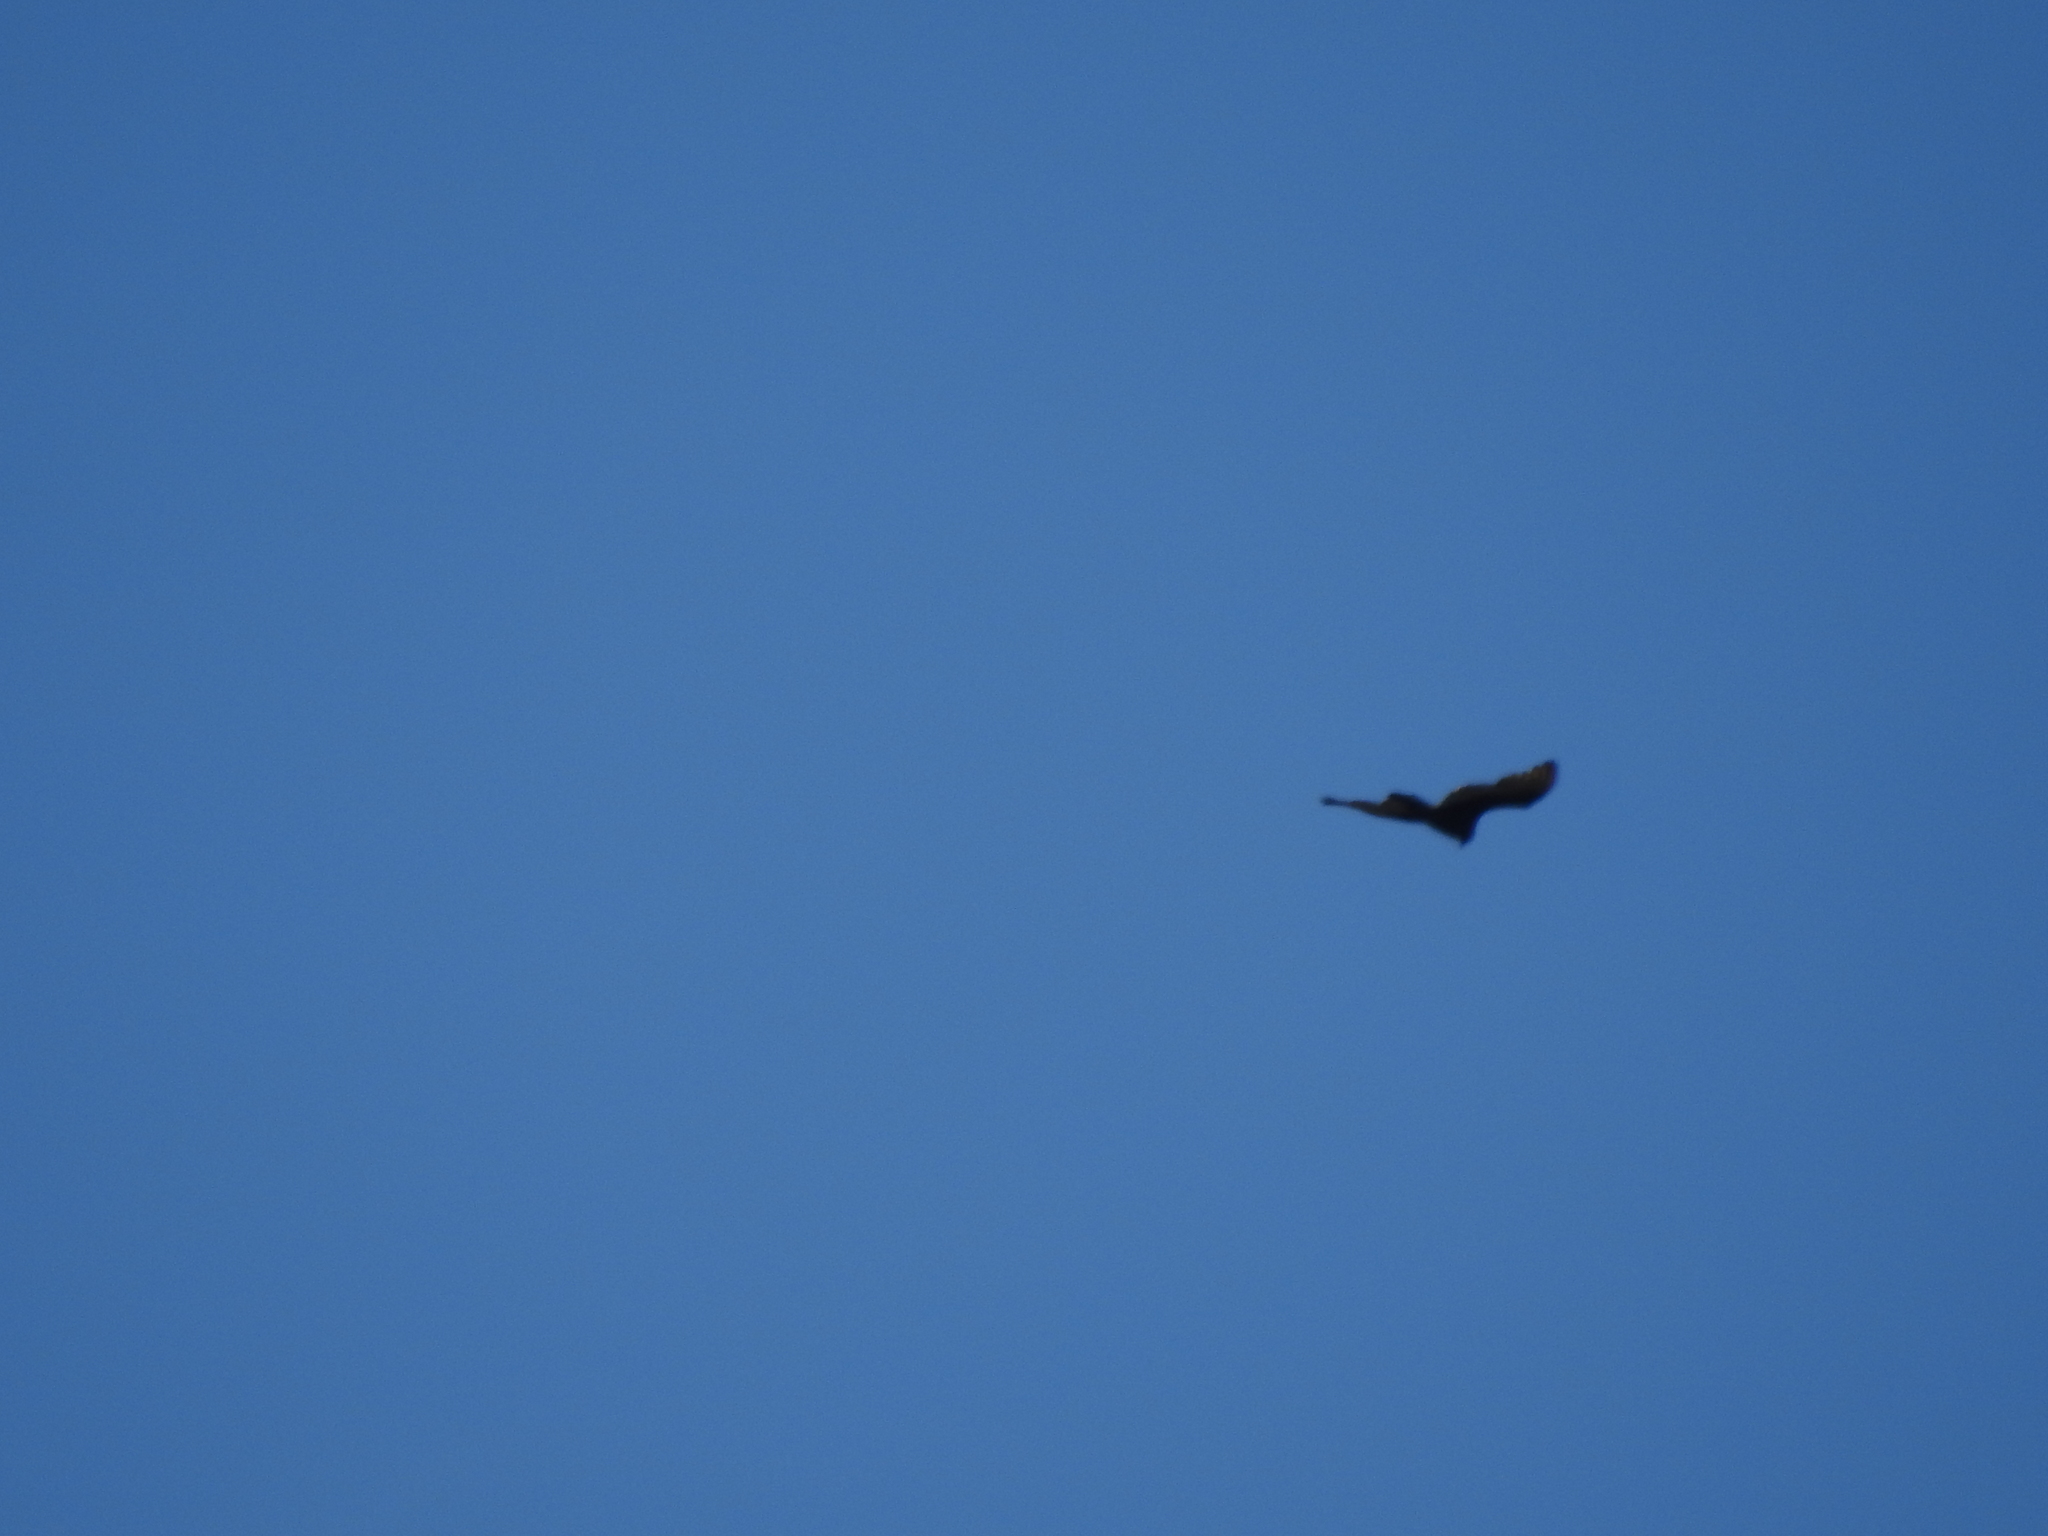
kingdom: Animalia
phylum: Chordata
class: Aves
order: Accipitriformes
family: Cathartidae
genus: Cathartes
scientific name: Cathartes aura
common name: Turkey vulture
